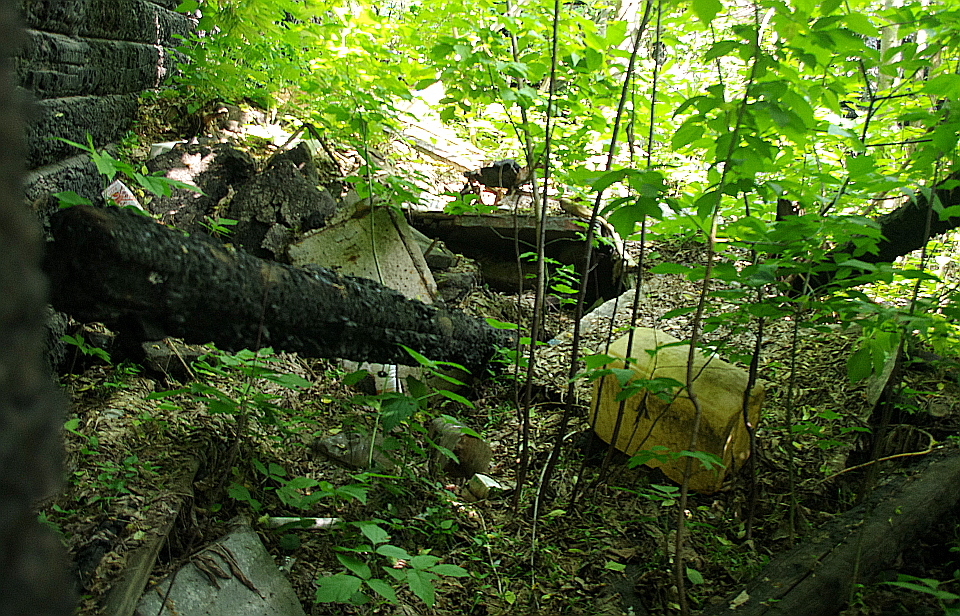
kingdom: Plantae
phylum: Tracheophyta
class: Magnoliopsida
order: Sapindales
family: Sapindaceae
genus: Acer
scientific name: Acer negundo
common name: Ashleaf maple
